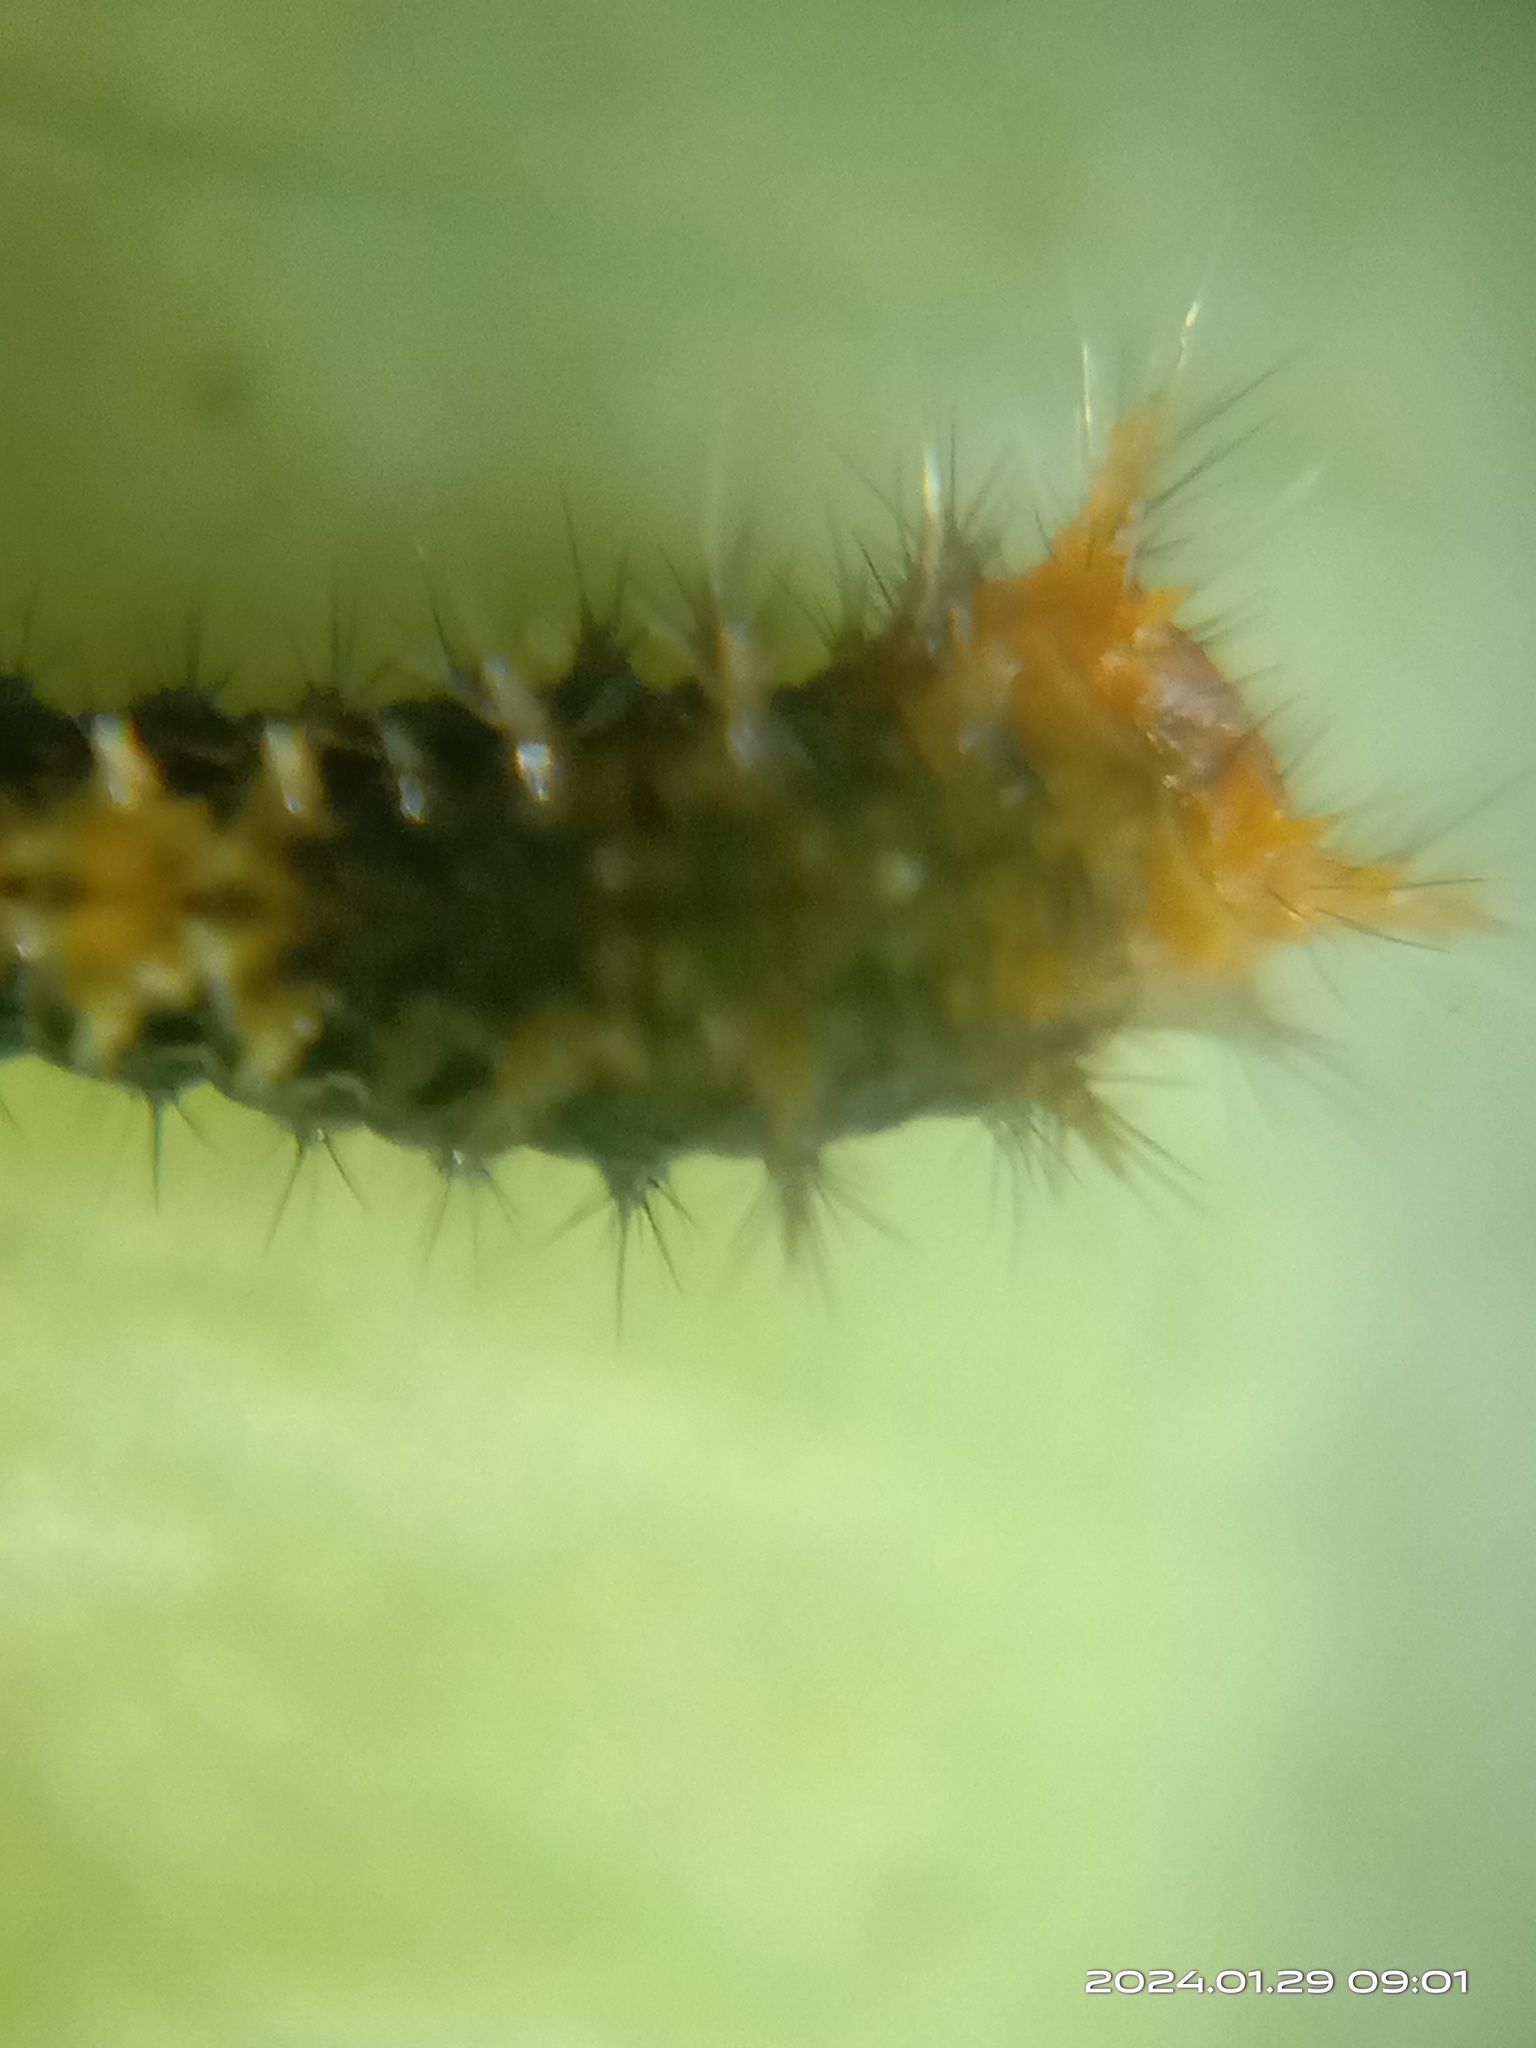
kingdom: Animalia
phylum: Arthropoda
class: Insecta
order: Lepidoptera
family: Papilionidae
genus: Papilio
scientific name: Papilio demoleus
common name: Lime butterfly
